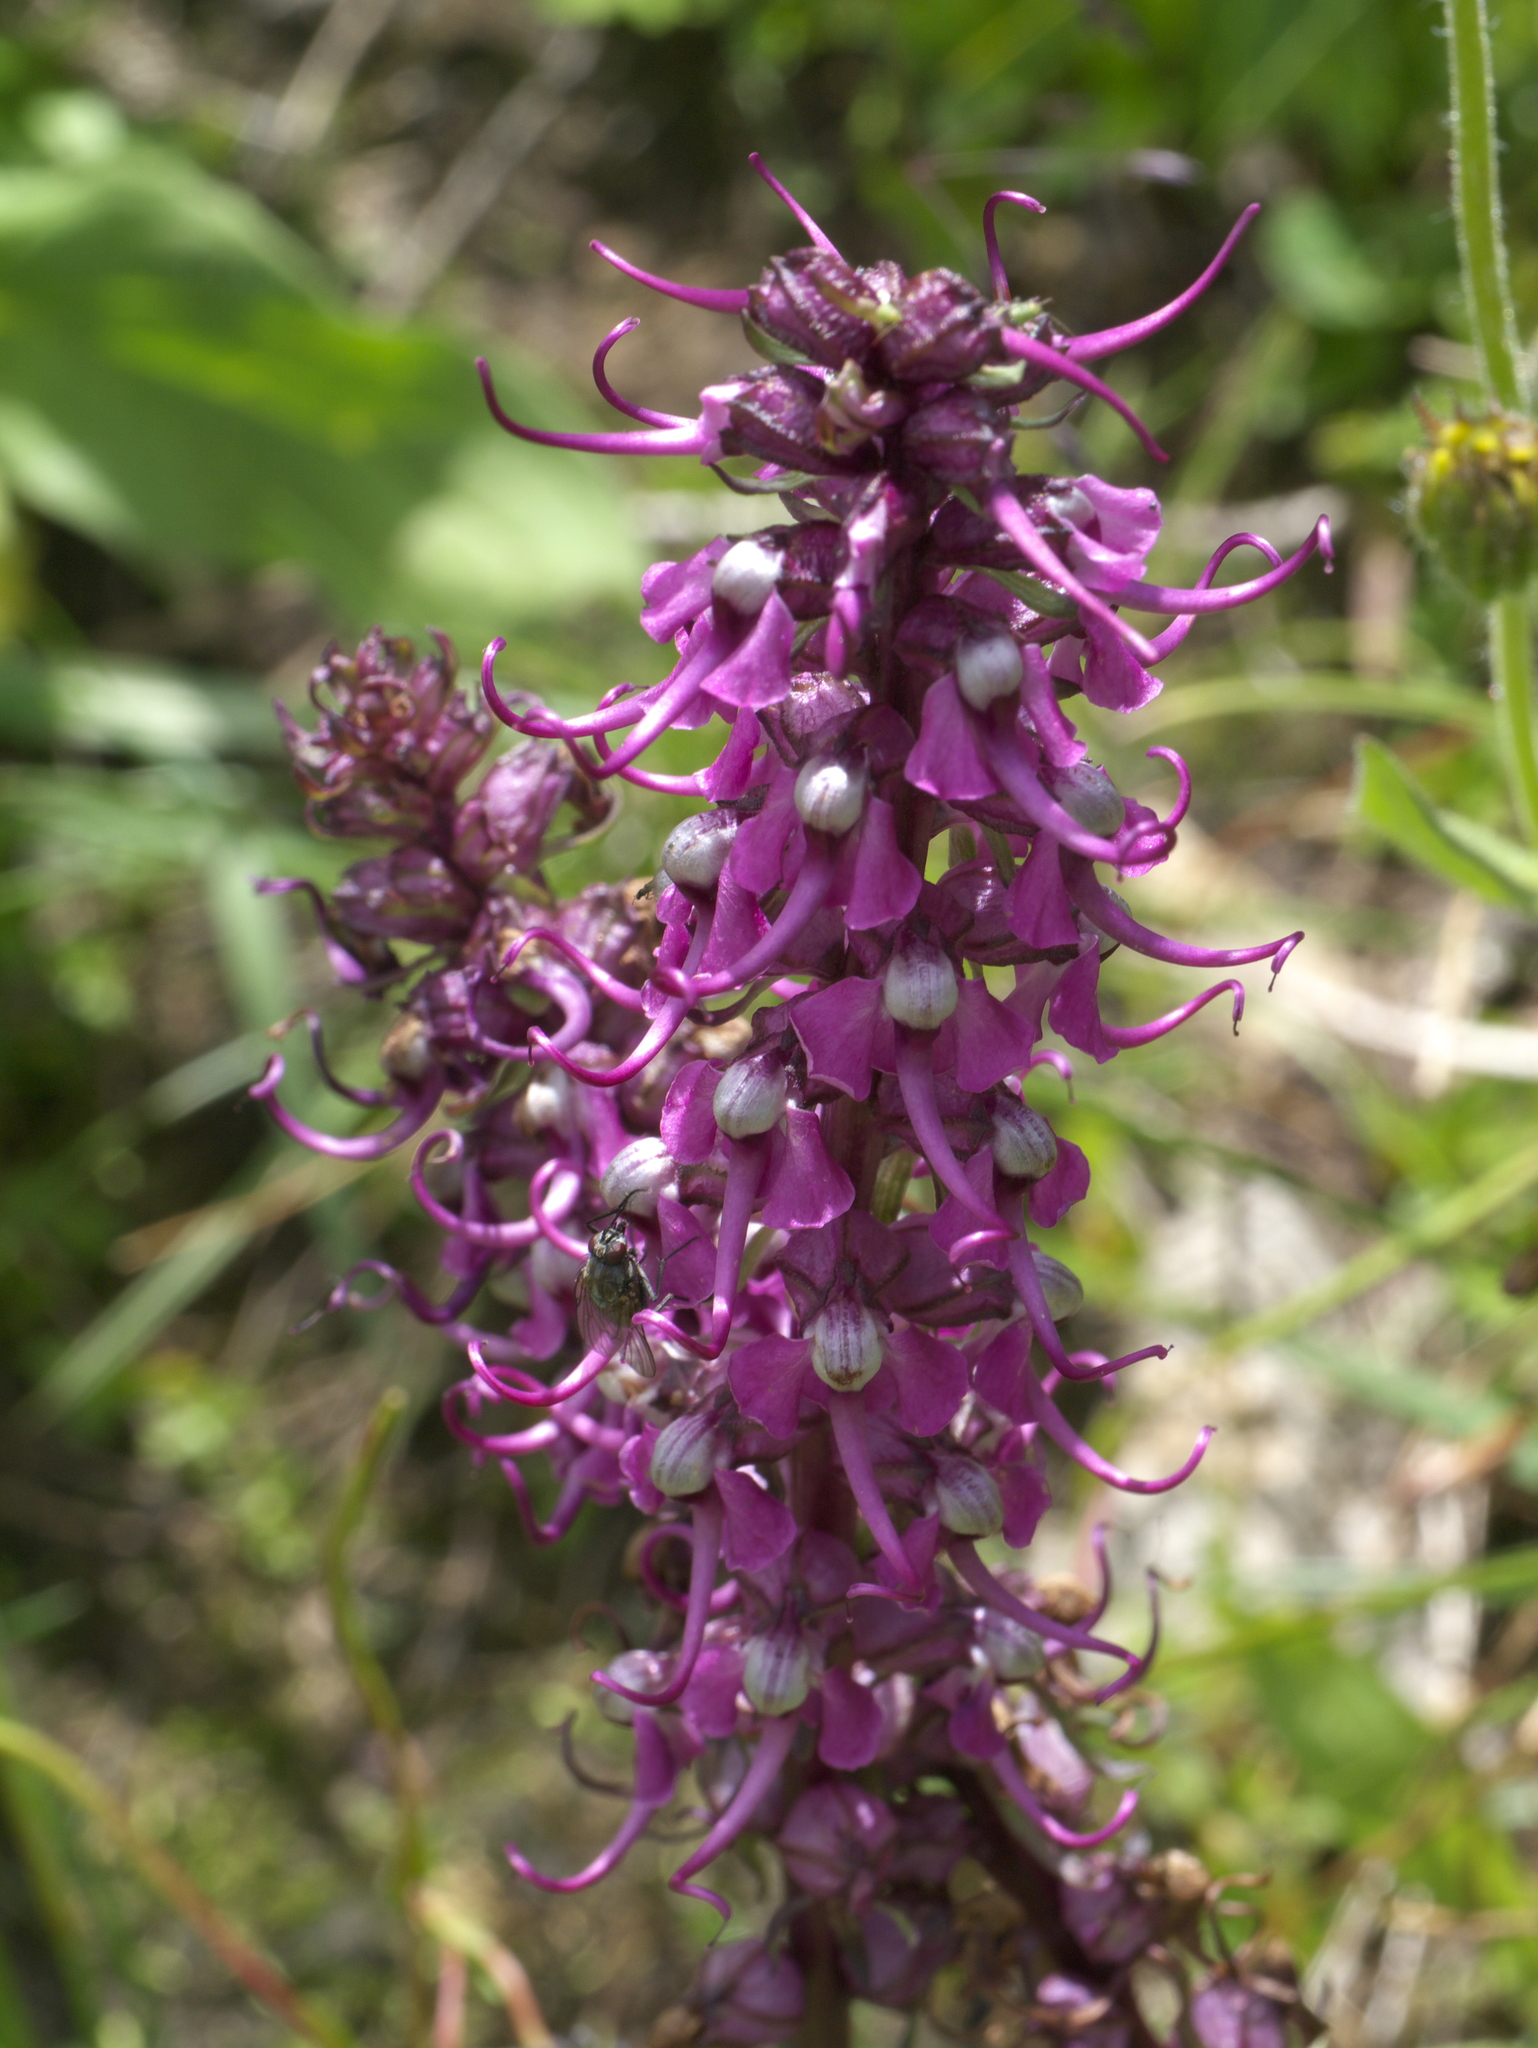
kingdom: Plantae
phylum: Tracheophyta
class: Magnoliopsida
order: Lamiales
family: Orobanchaceae
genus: Pedicularis
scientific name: Pedicularis groenlandica
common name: Elephant's-head
